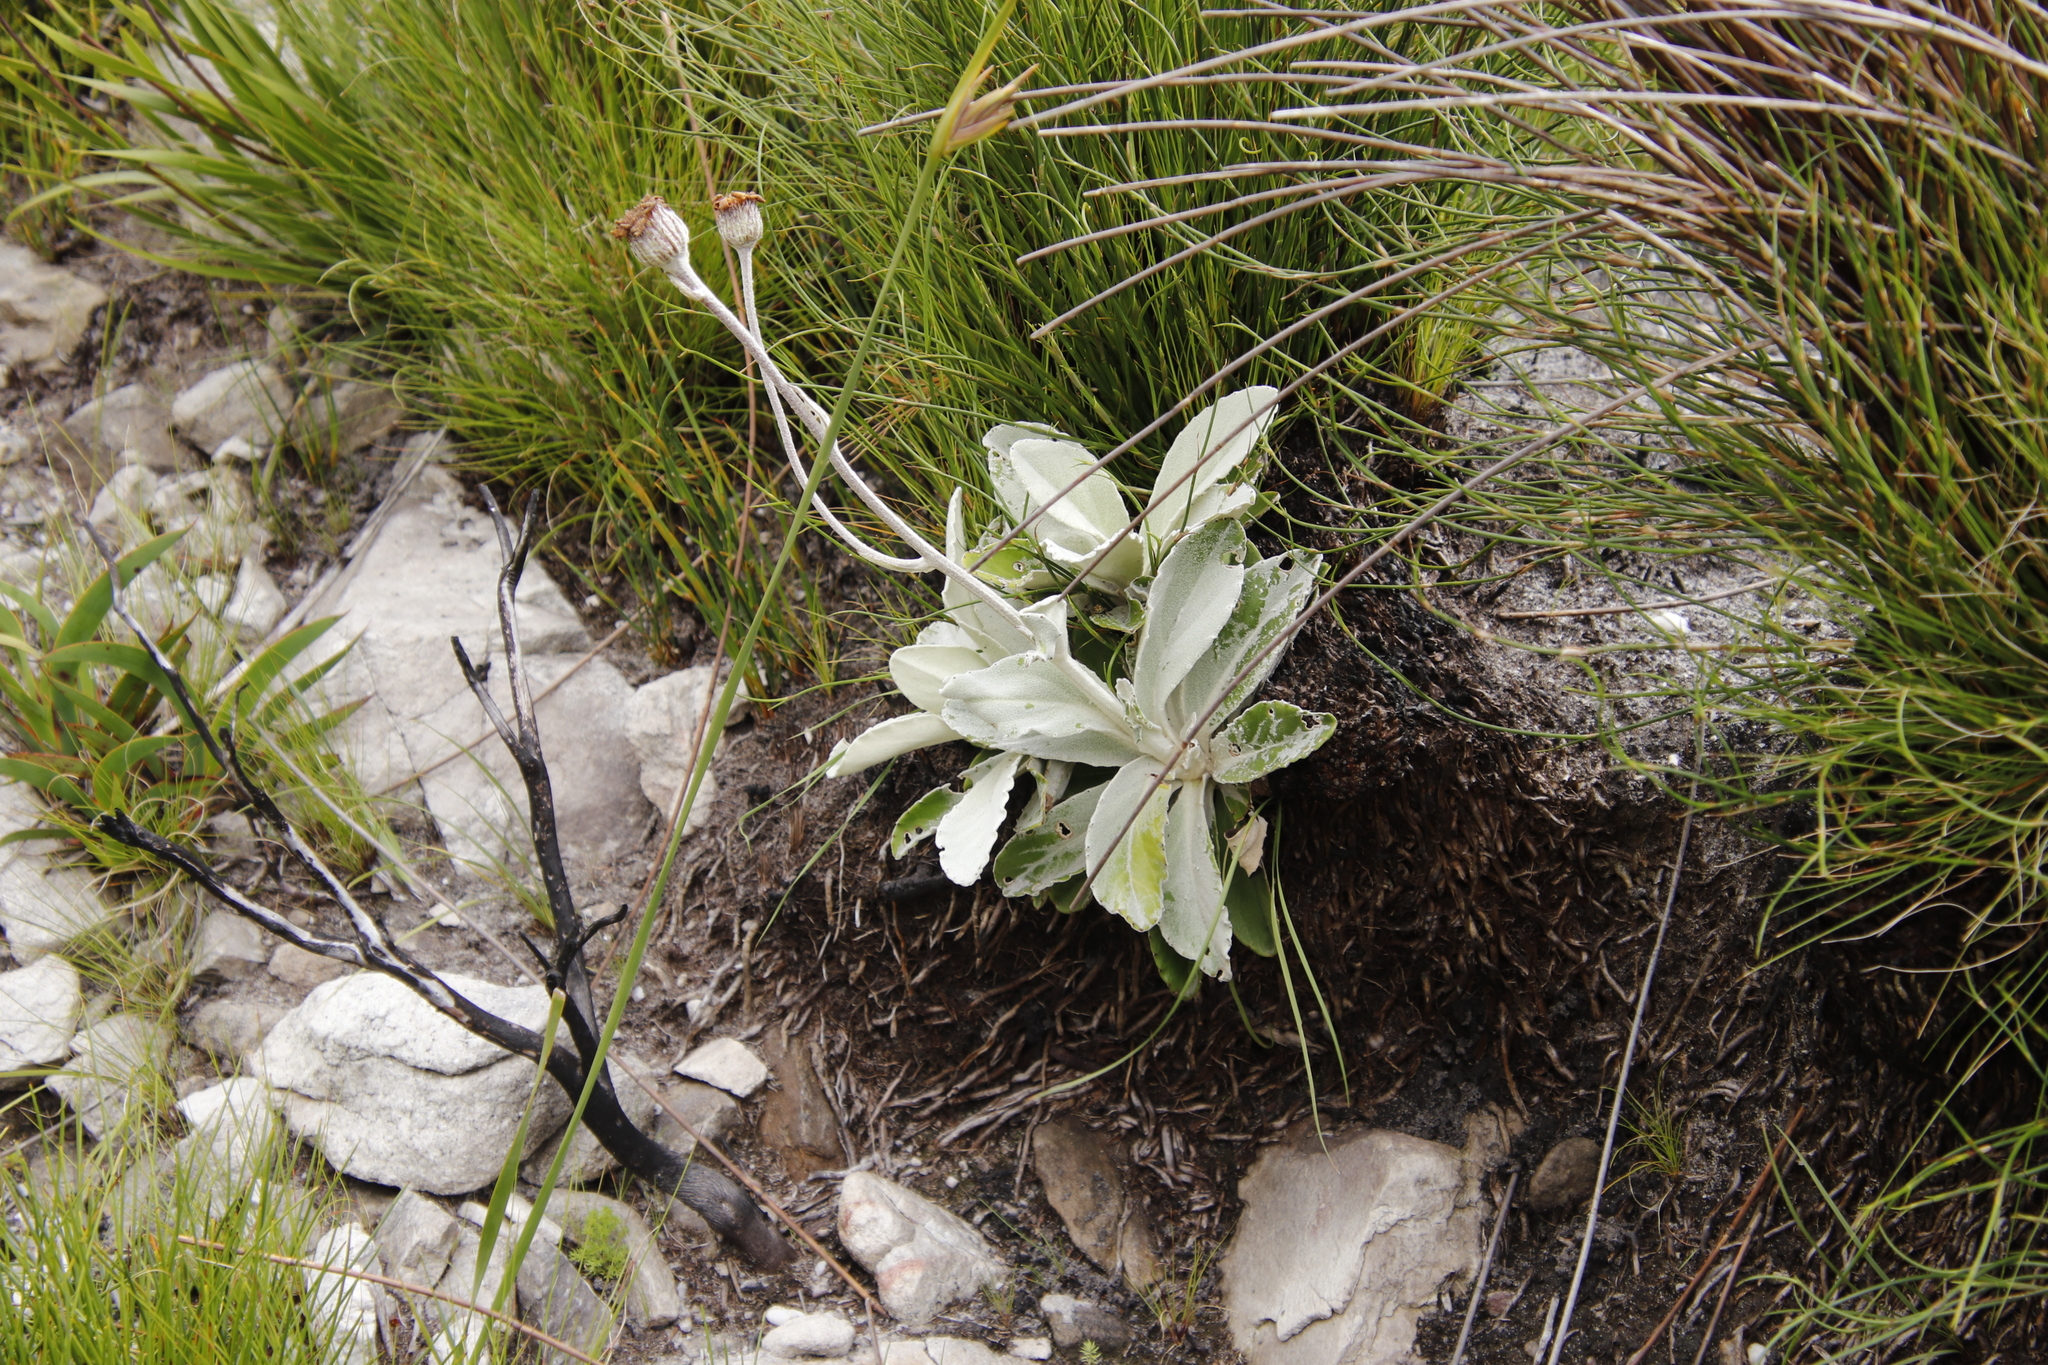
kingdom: Plantae
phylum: Tracheophyta
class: Magnoliopsida
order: Asterales
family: Asteraceae
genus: Mairia
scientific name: Mairia robusta
